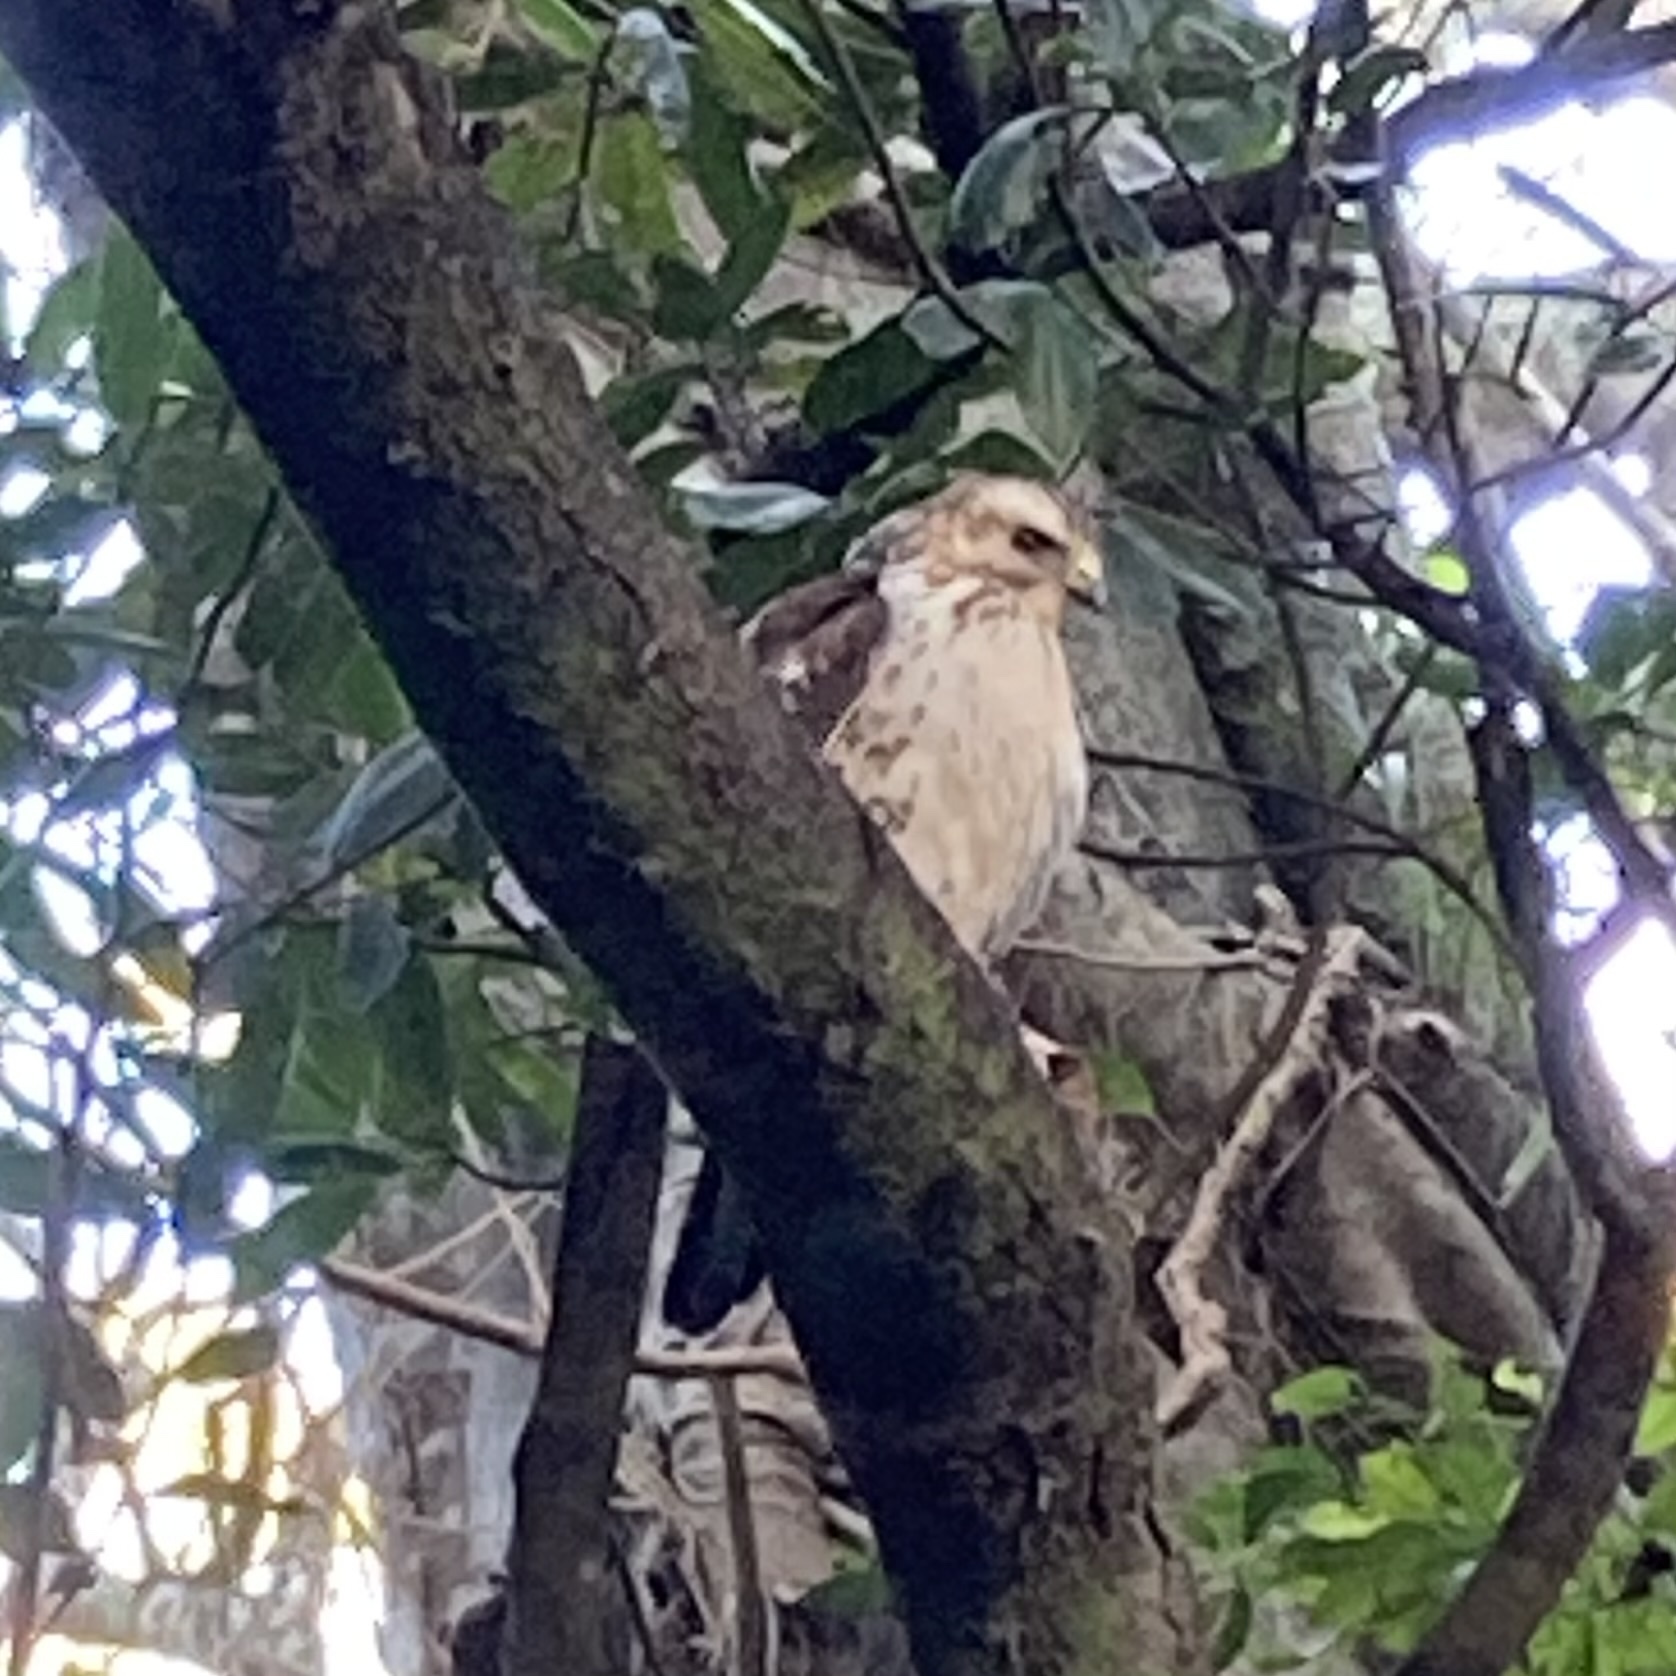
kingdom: Animalia
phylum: Chordata
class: Aves
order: Accipitriformes
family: Accipitridae
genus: Buteo
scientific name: Buteo platypterus
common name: Broad-winged hawk
